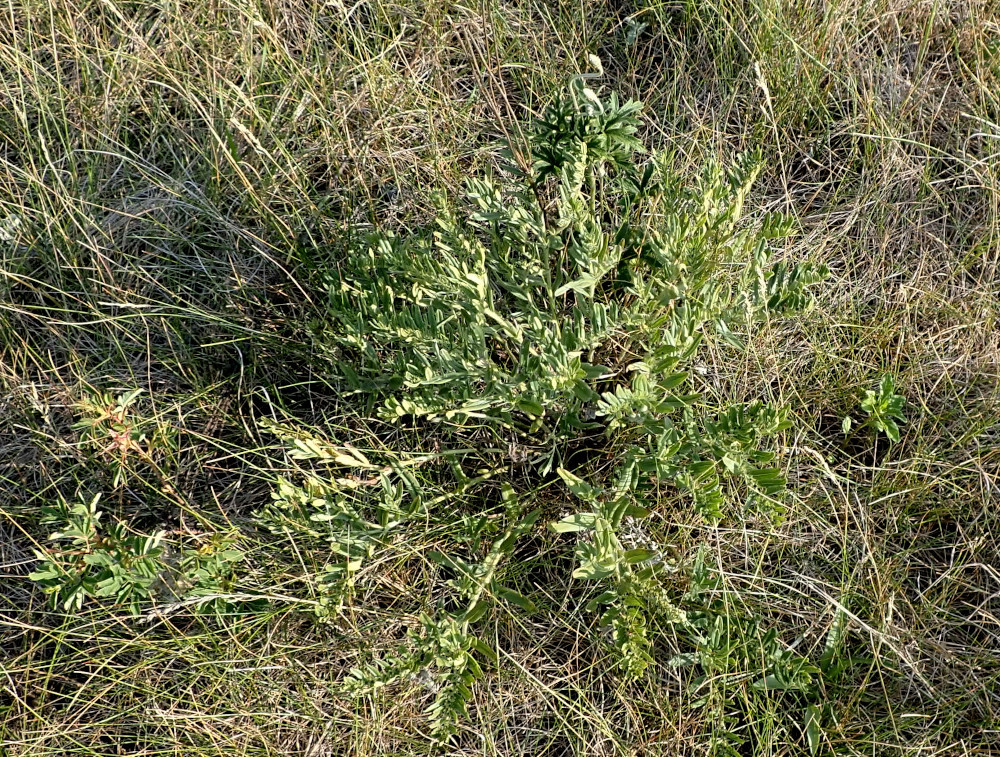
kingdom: Plantae
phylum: Tracheophyta
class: Magnoliopsida
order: Boraginales
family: Boraginaceae
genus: Lithospermum
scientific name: Lithospermum canescens
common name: Hoary puccoon
